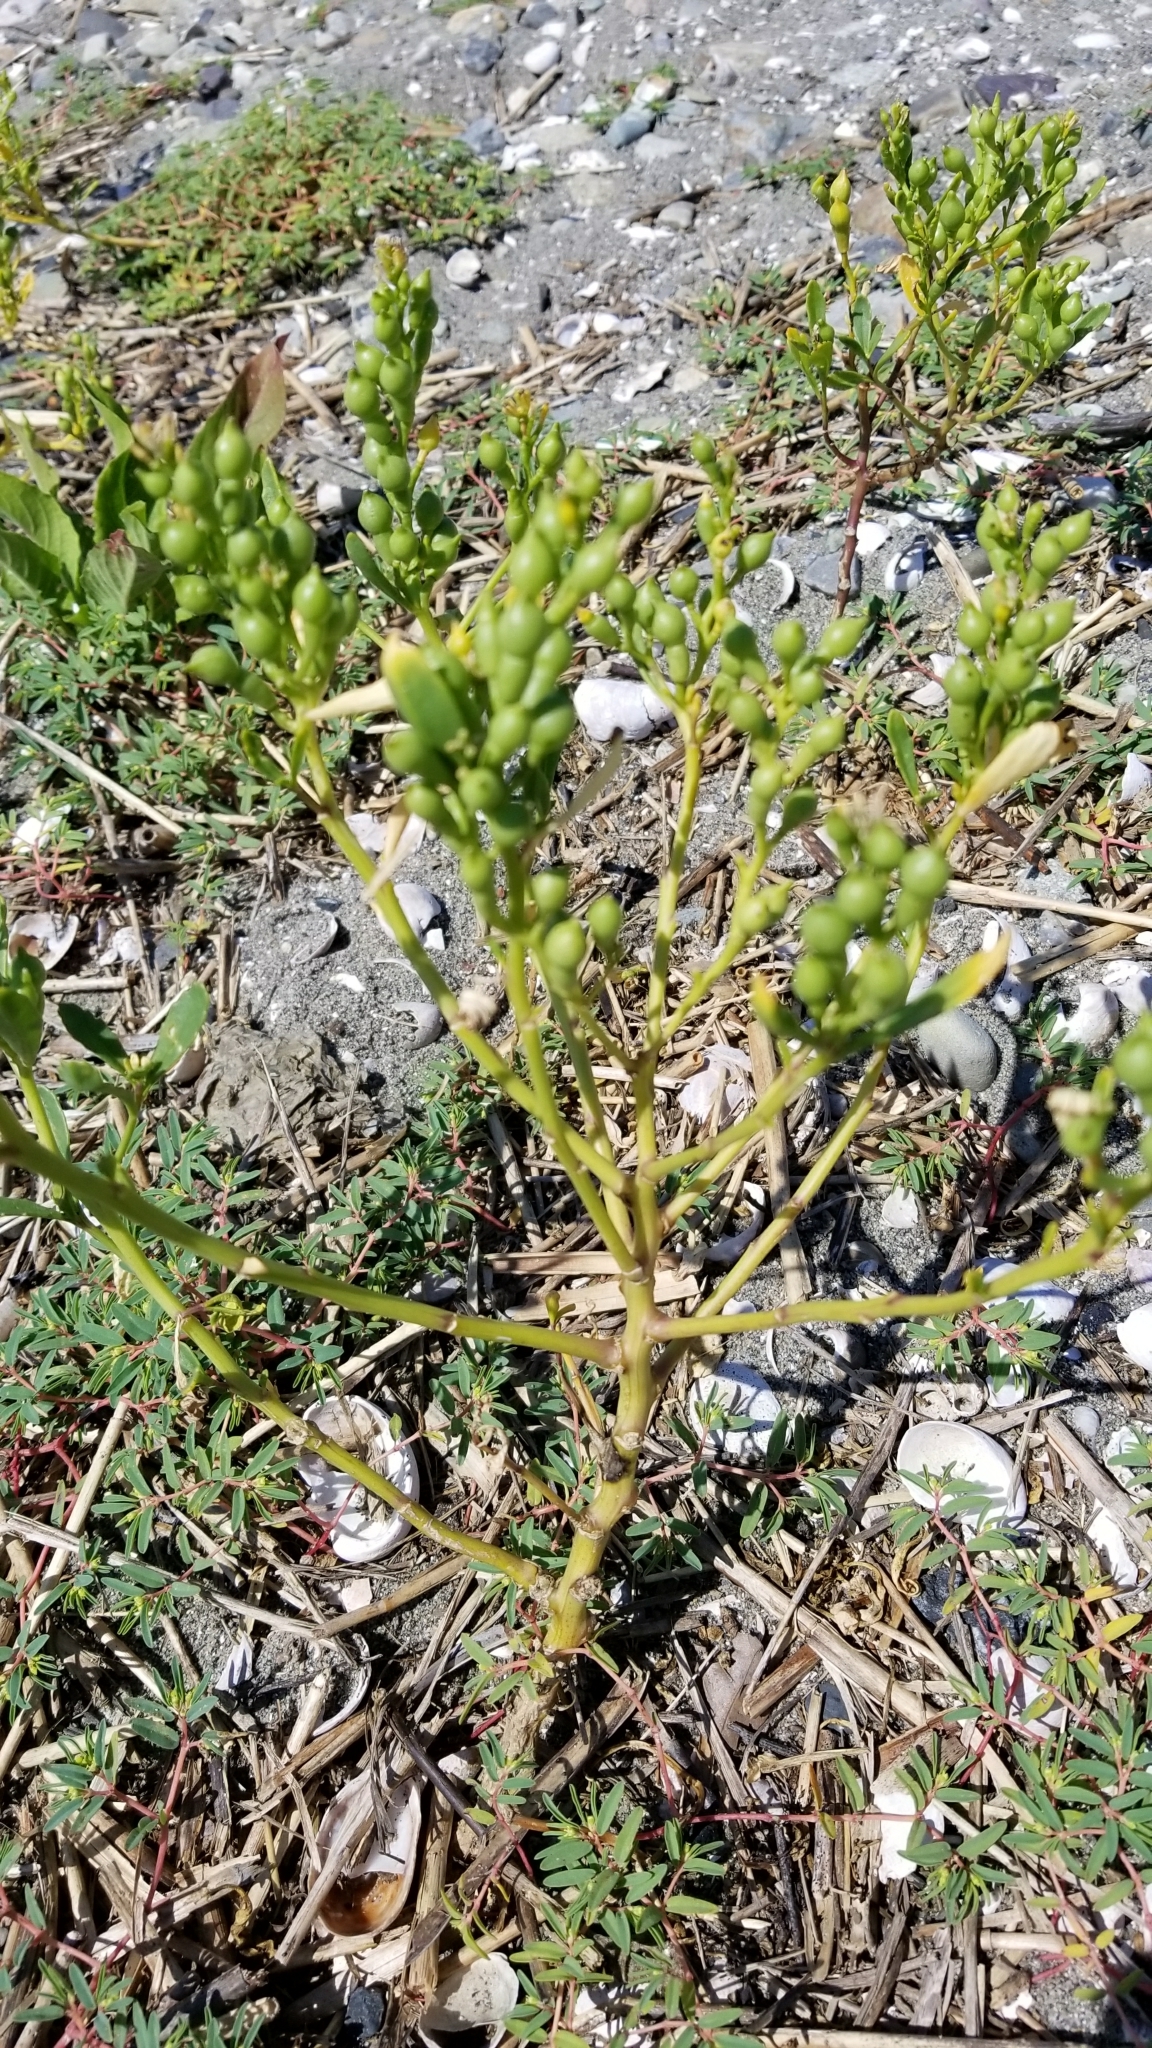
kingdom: Plantae
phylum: Tracheophyta
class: Magnoliopsida
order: Brassicales
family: Brassicaceae
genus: Cakile
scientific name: Cakile edentula
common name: American sea rocket
